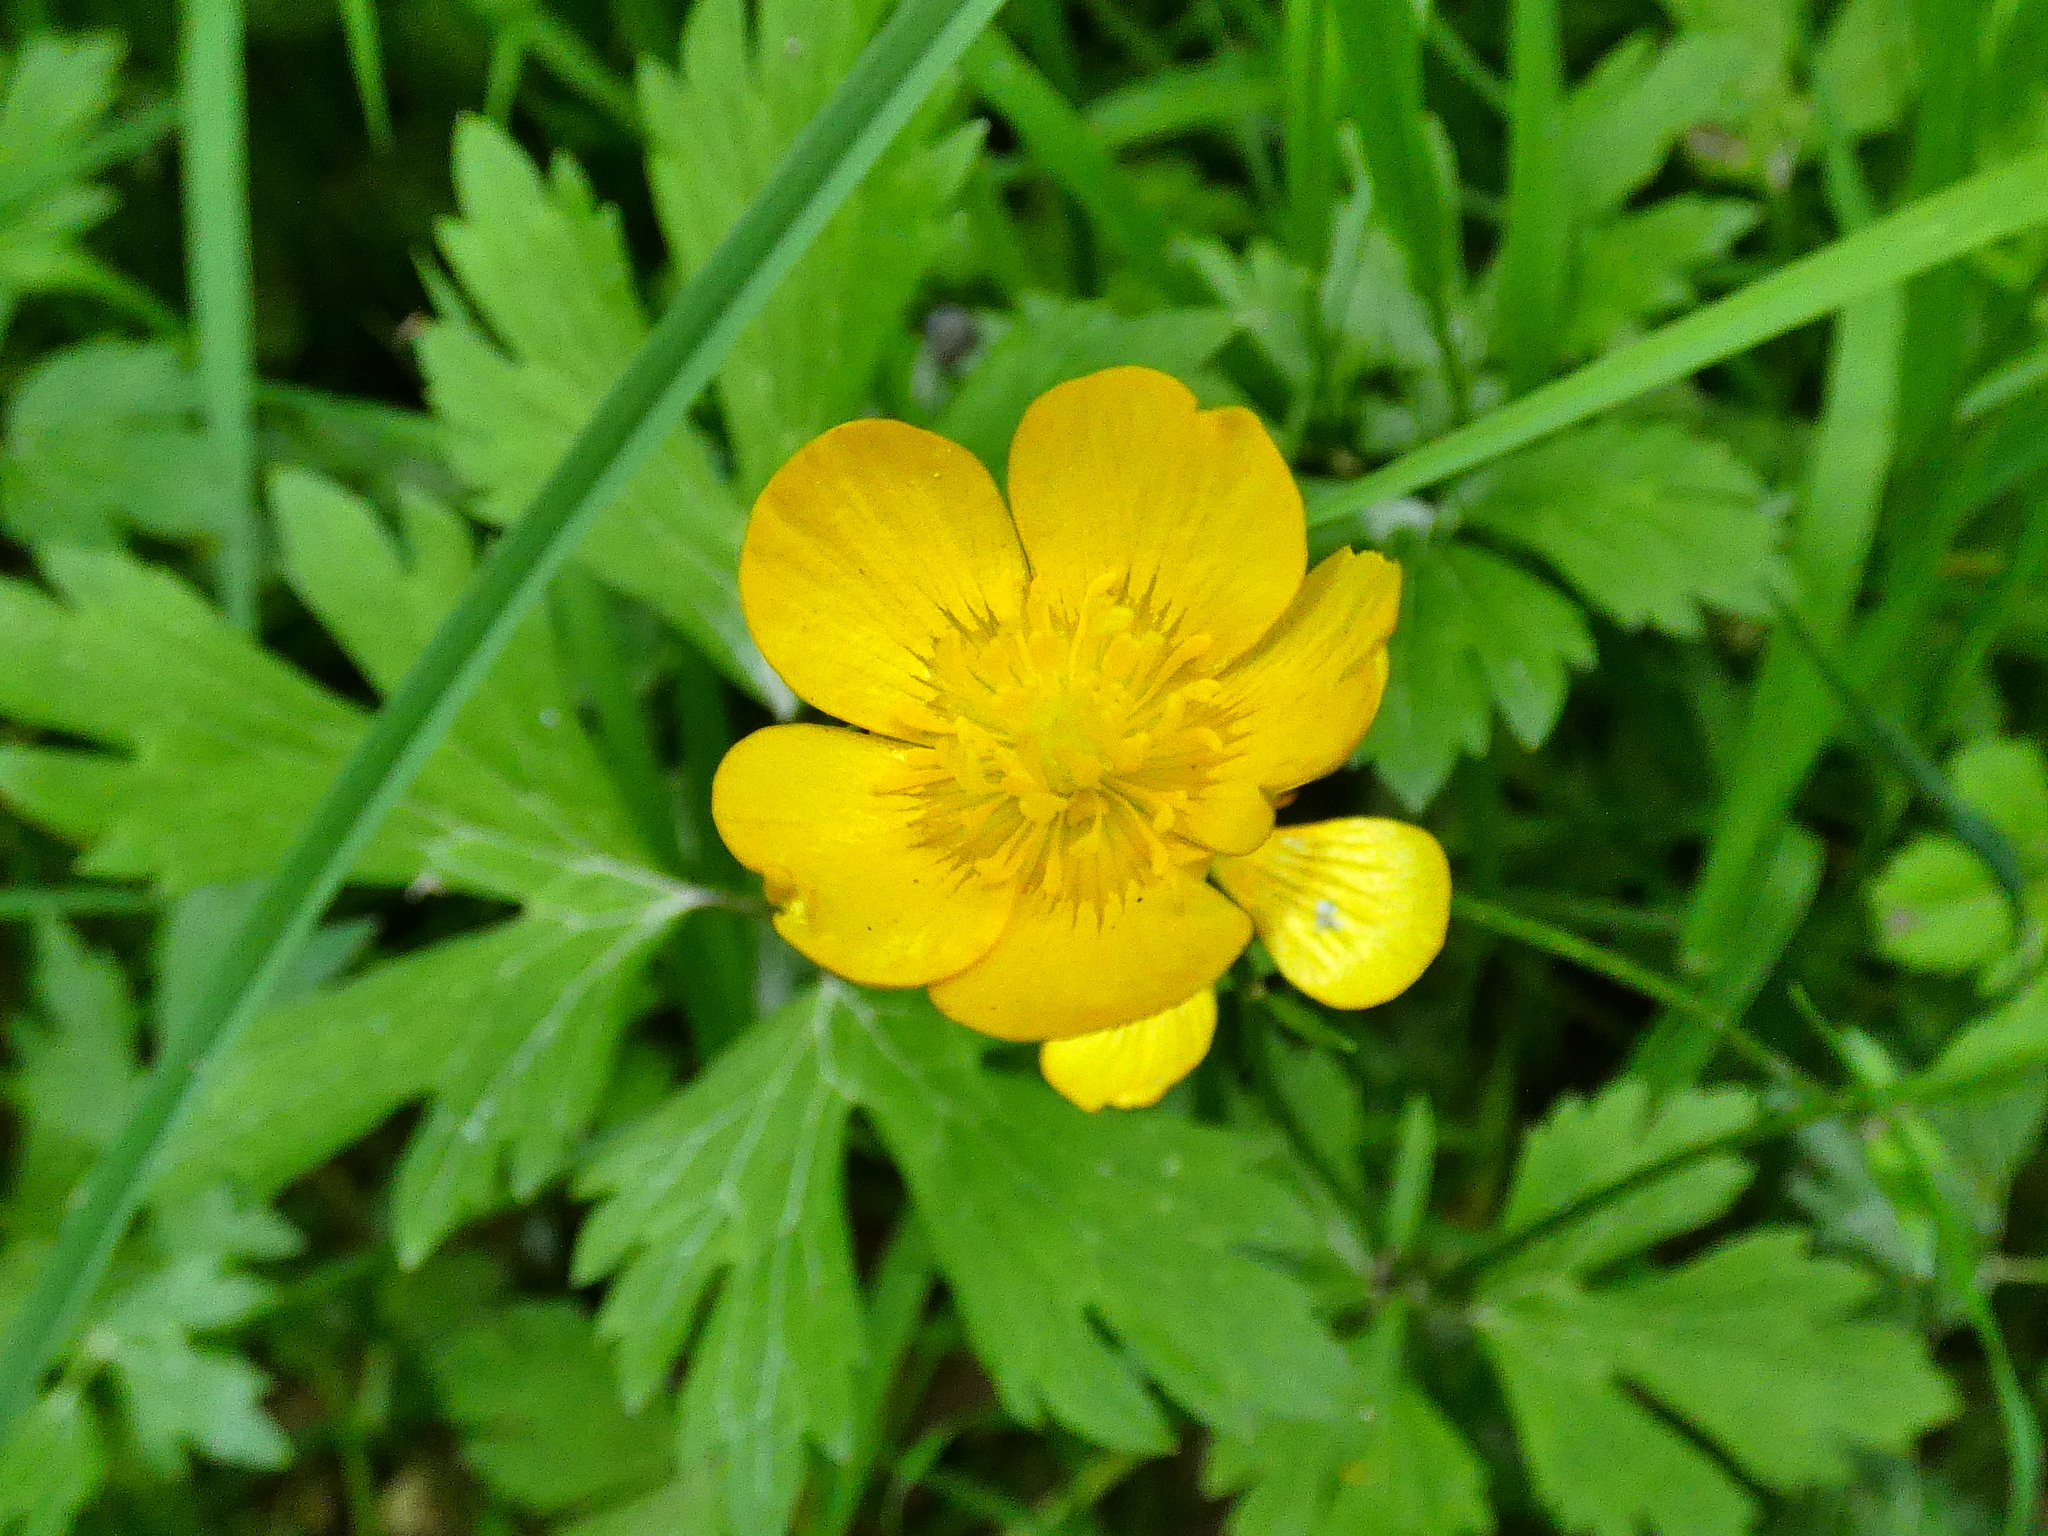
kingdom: Plantae
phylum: Tracheophyta
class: Magnoliopsida
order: Ranunculales
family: Ranunculaceae
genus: Ranunculus
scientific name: Ranunculus repens
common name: Creeping buttercup
